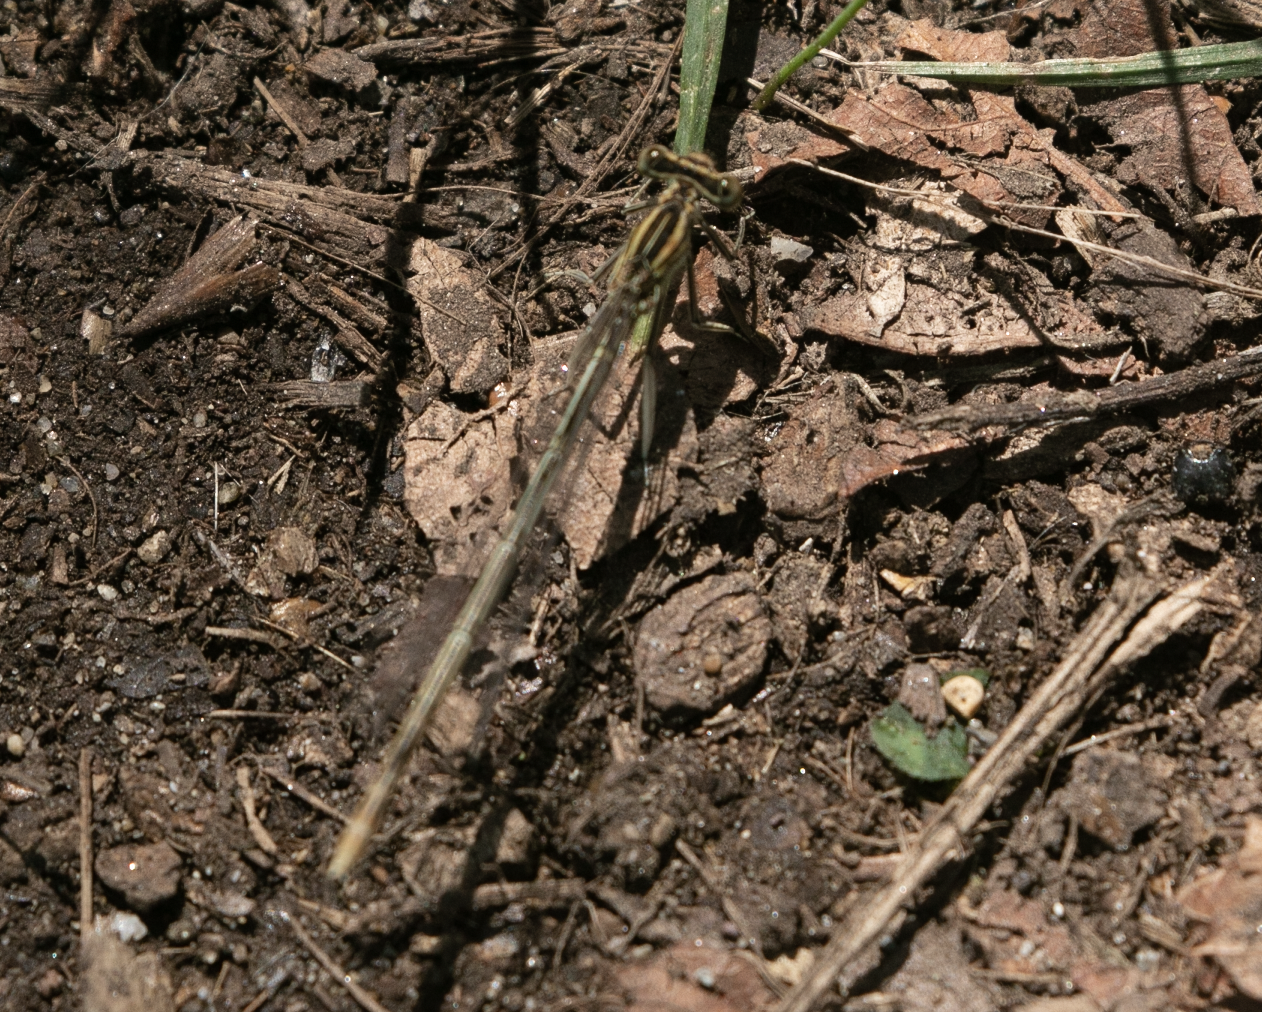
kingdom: Animalia
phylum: Arthropoda
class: Insecta
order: Odonata
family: Platycnemididae
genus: Platycnemis
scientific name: Platycnemis pennipes
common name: White-legged damselfly
